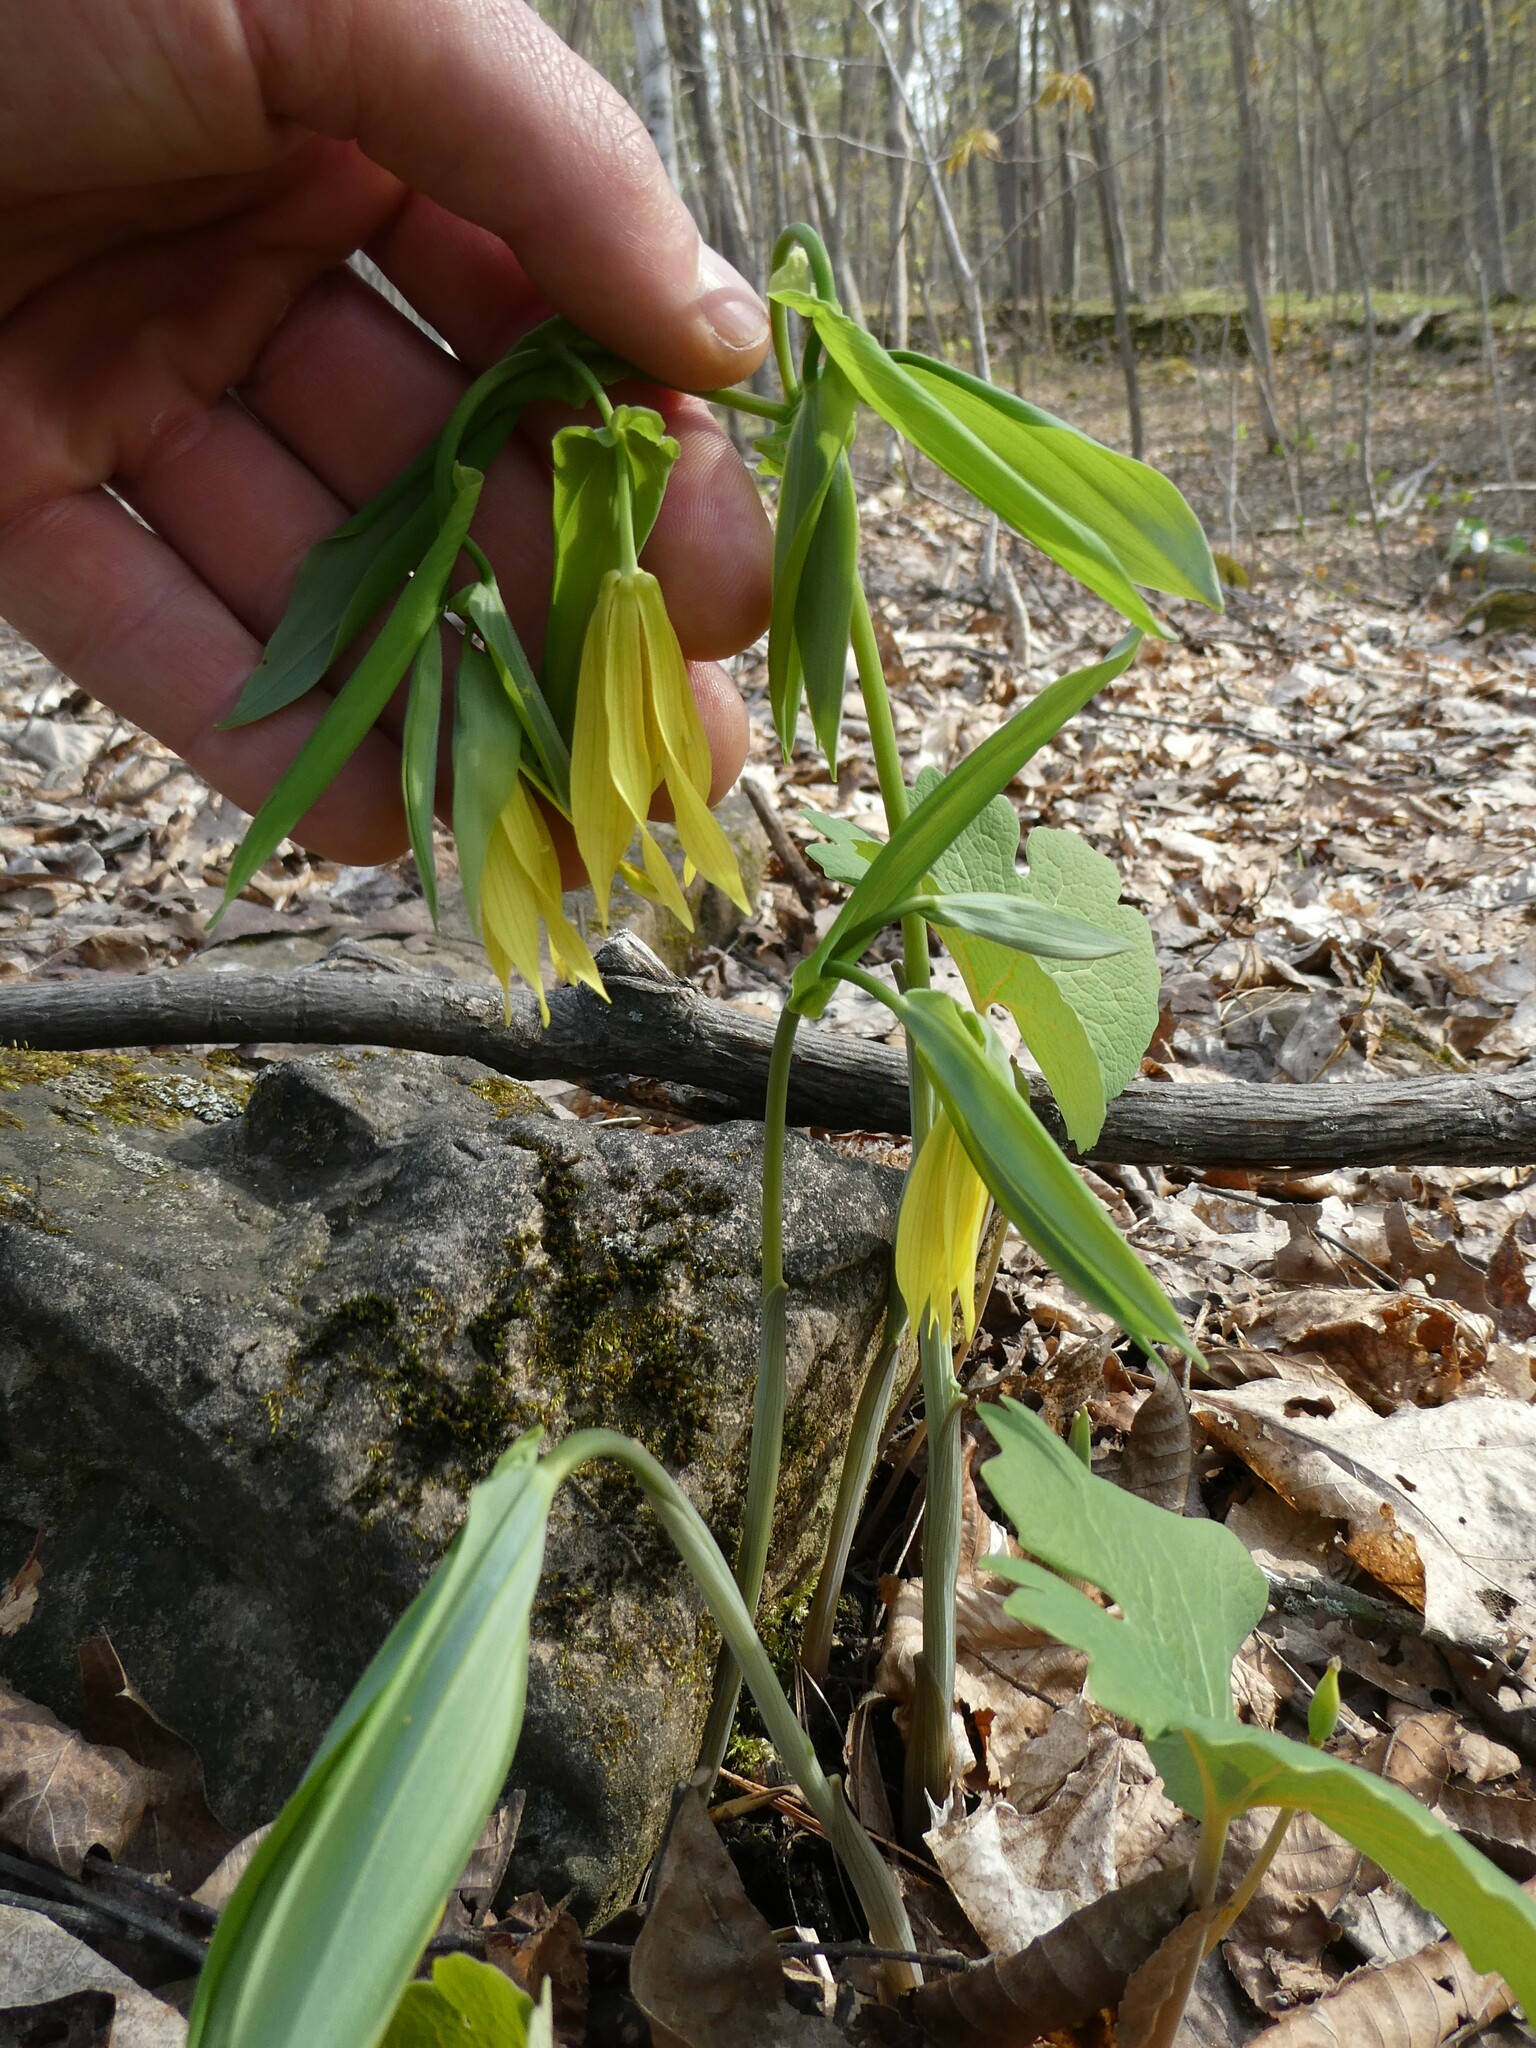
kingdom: Plantae
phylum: Tracheophyta
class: Liliopsida
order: Liliales
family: Colchicaceae
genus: Uvularia
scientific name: Uvularia grandiflora
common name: Bellwort
